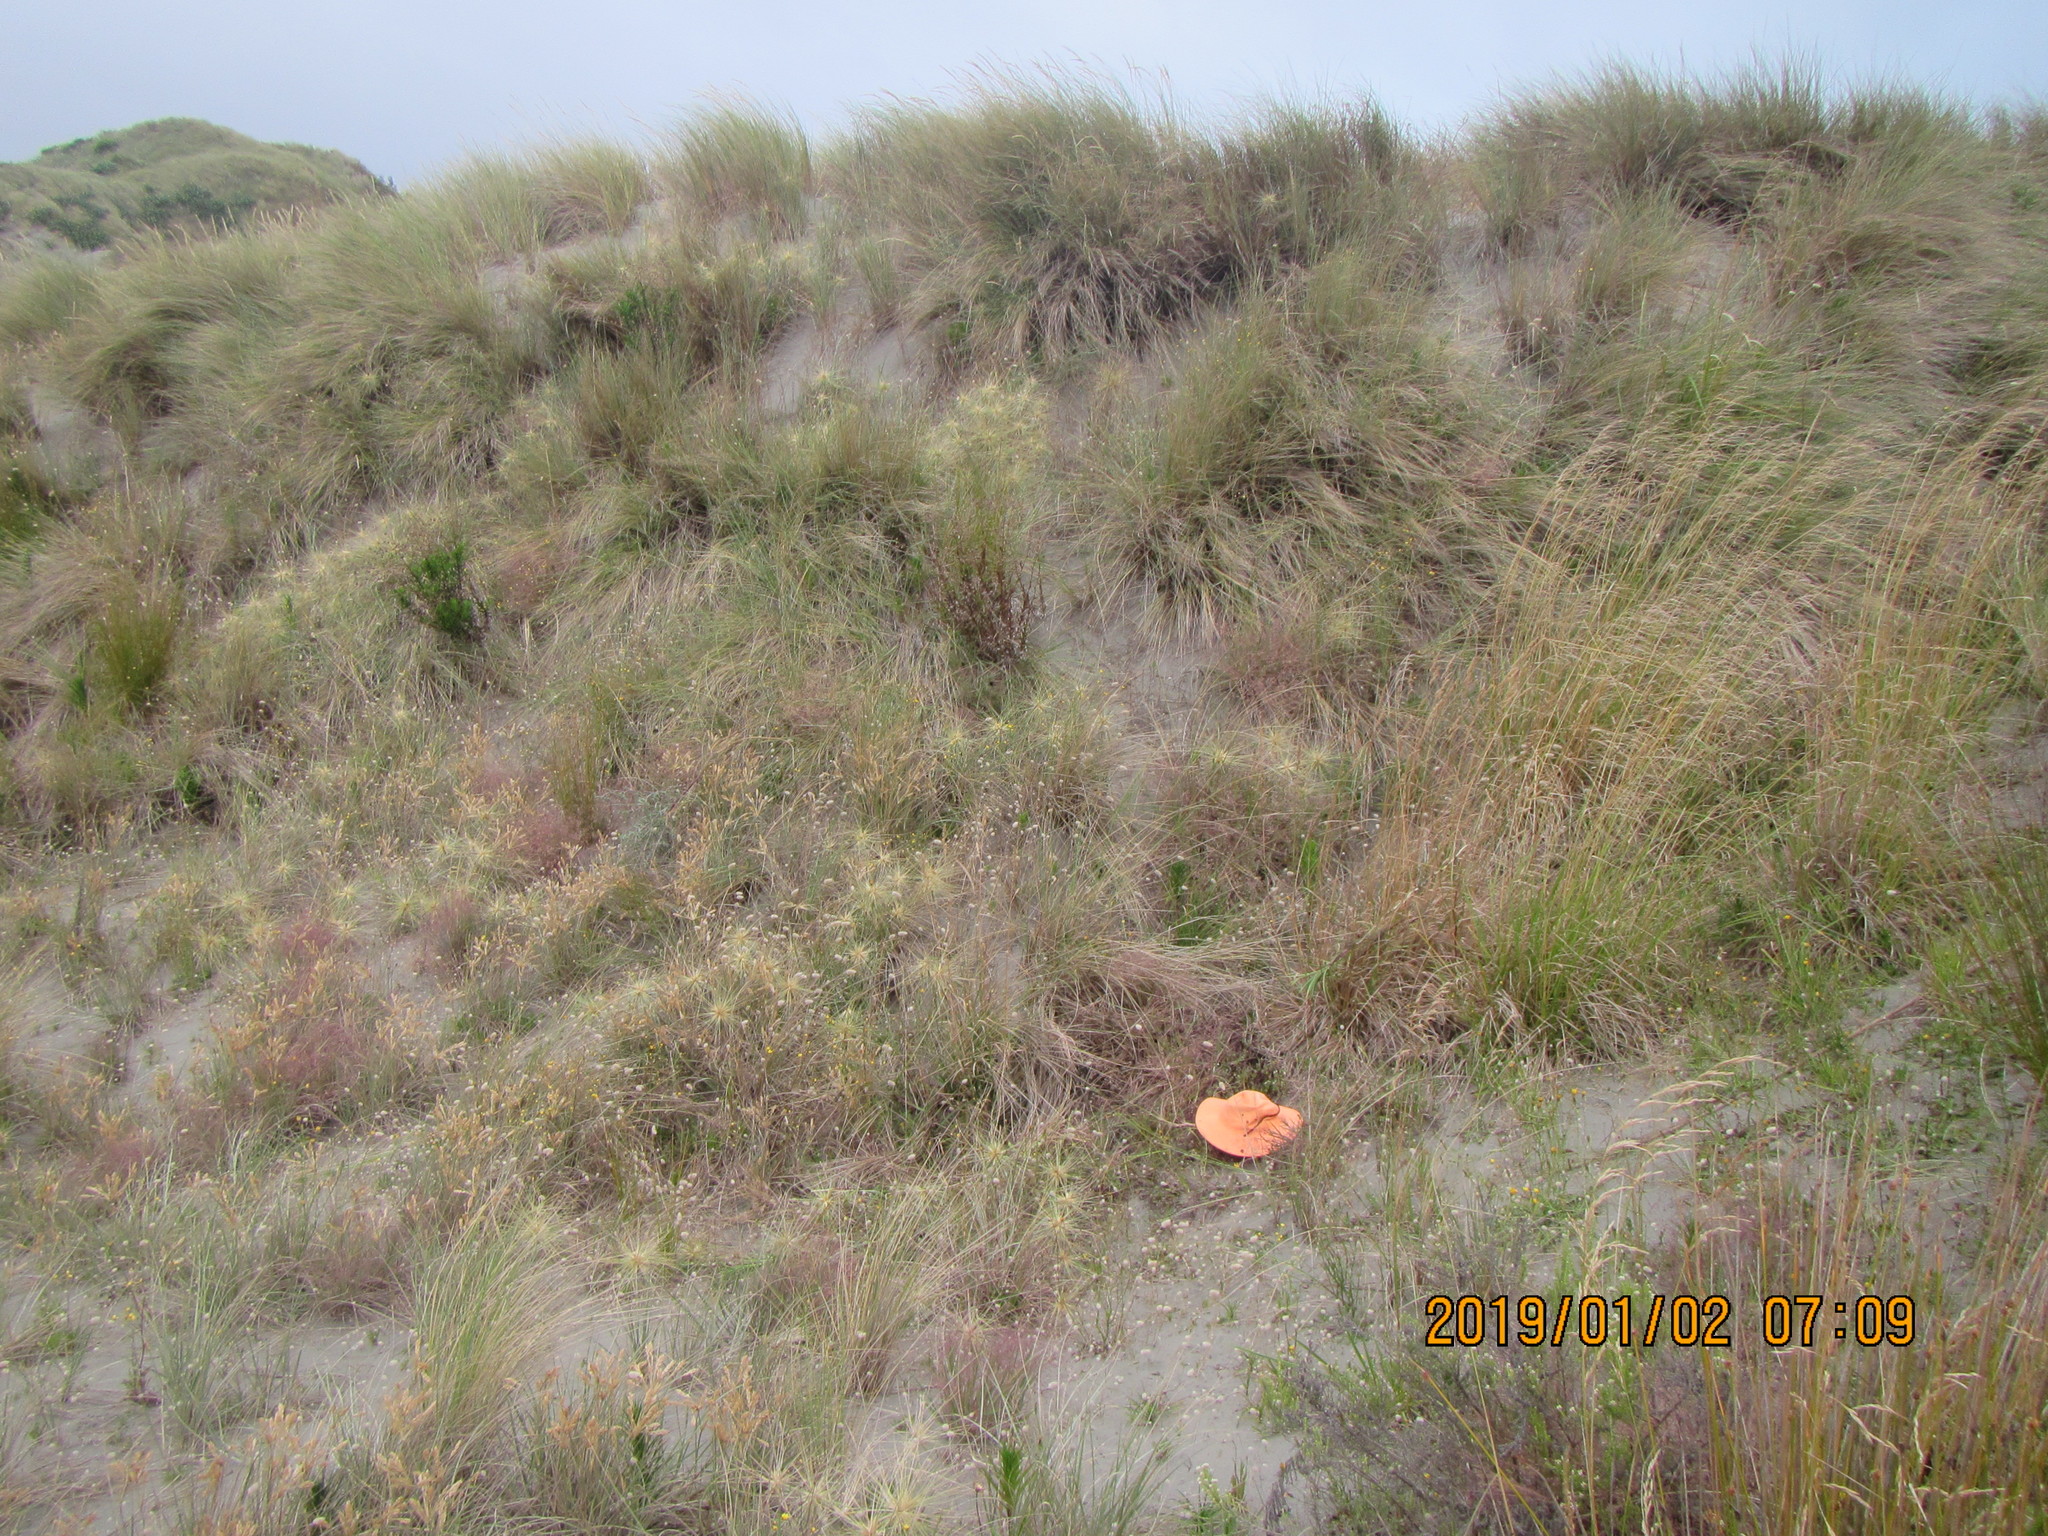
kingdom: Plantae
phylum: Tracheophyta
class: Magnoliopsida
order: Malvales
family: Thymelaeaceae
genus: Pimelea
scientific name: Pimelea villosa
